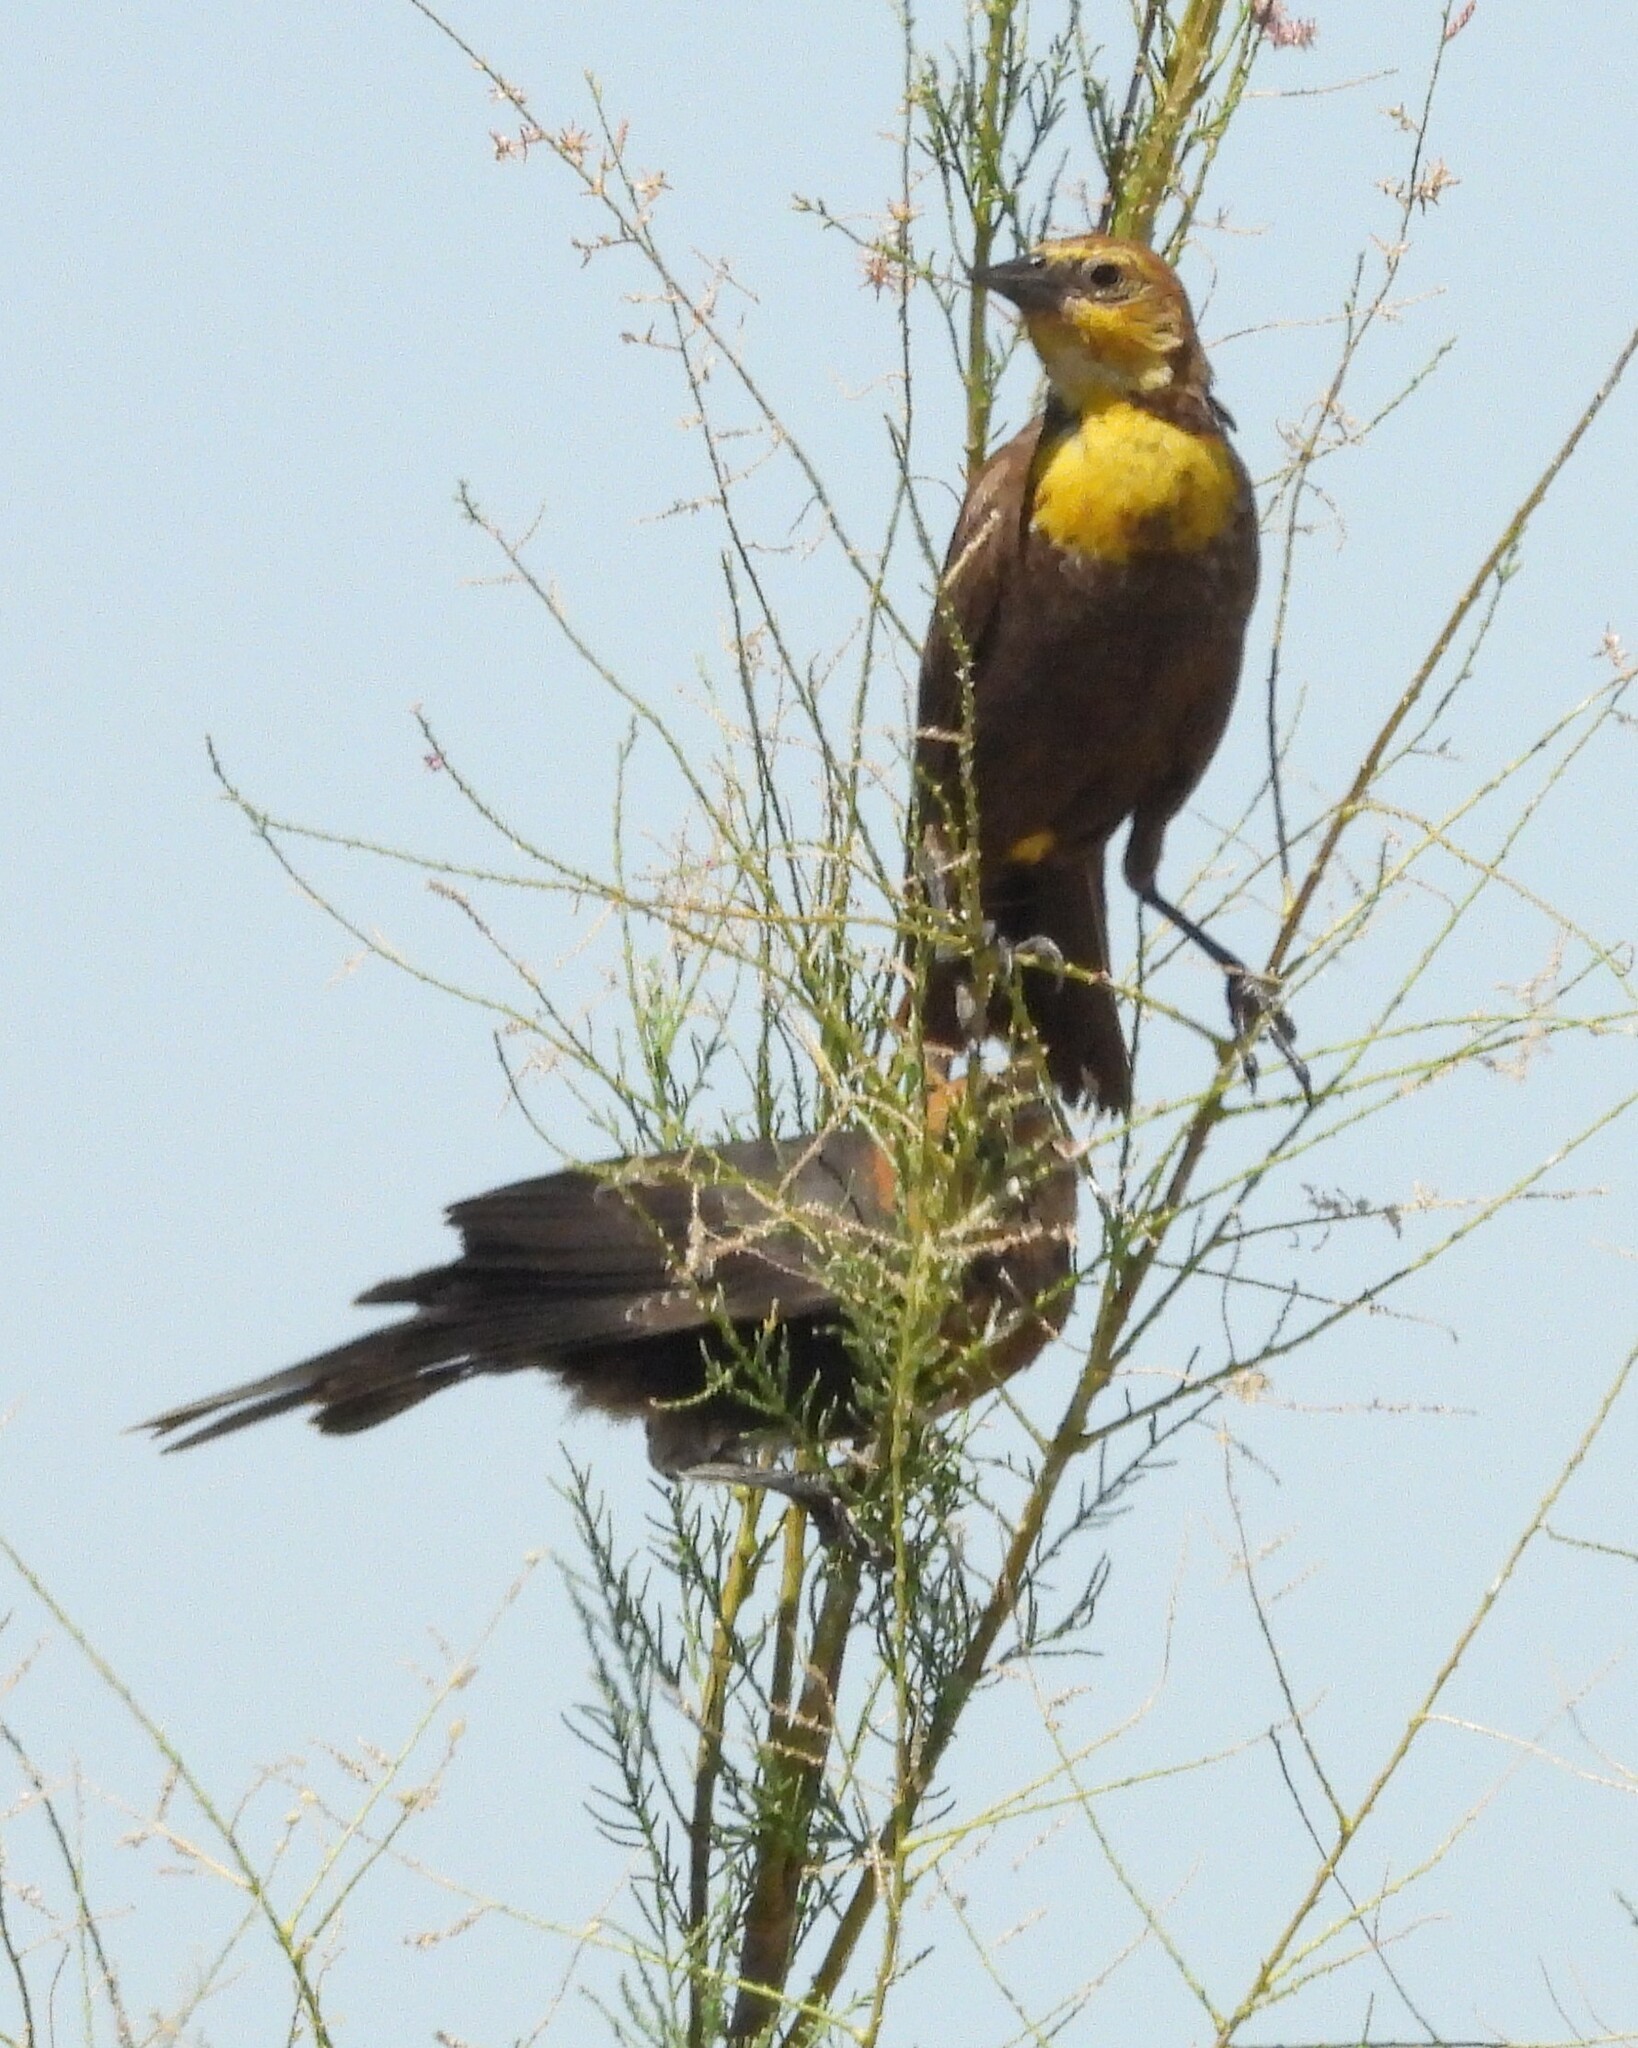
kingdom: Animalia
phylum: Chordata
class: Aves
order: Passeriformes
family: Icteridae
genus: Xanthocephalus
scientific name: Xanthocephalus xanthocephalus
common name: Yellow-headed blackbird
